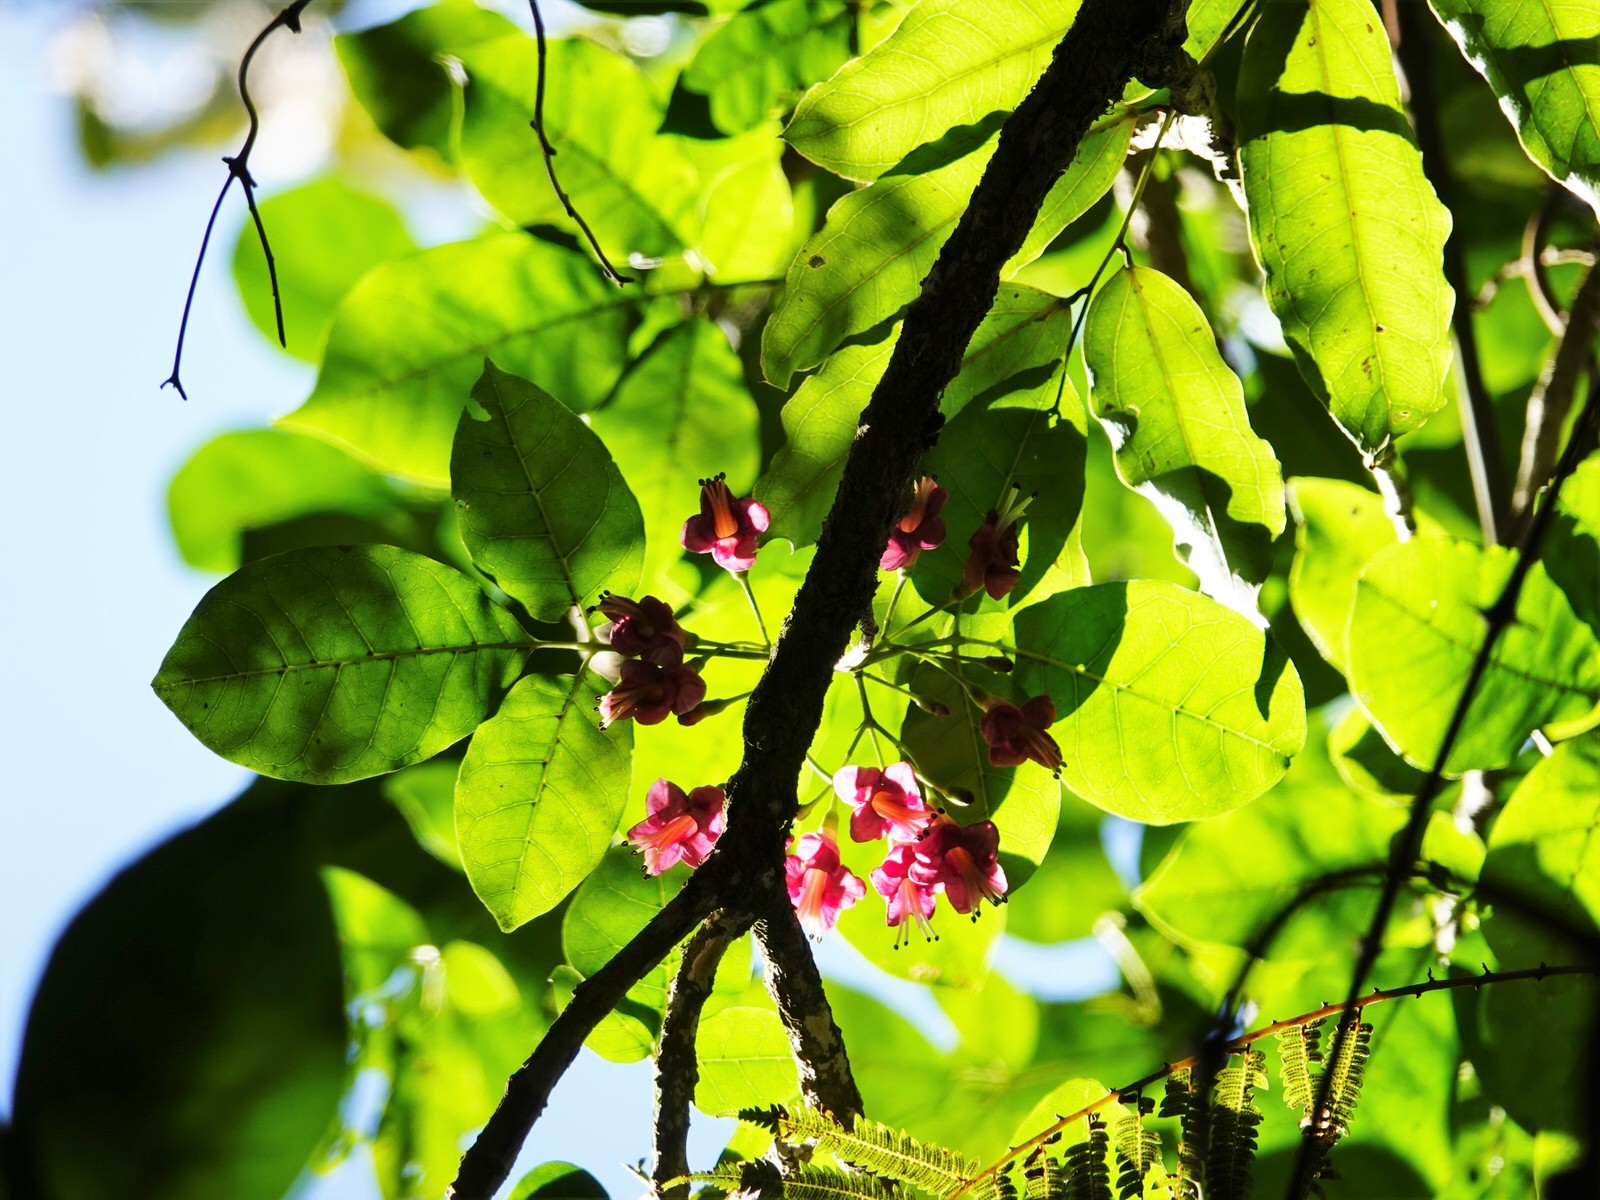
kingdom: Plantae
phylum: Tracheophyta
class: Magnoliopsida
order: Lamiales
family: Lamiaceae
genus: Vitex
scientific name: Vitex lucens
